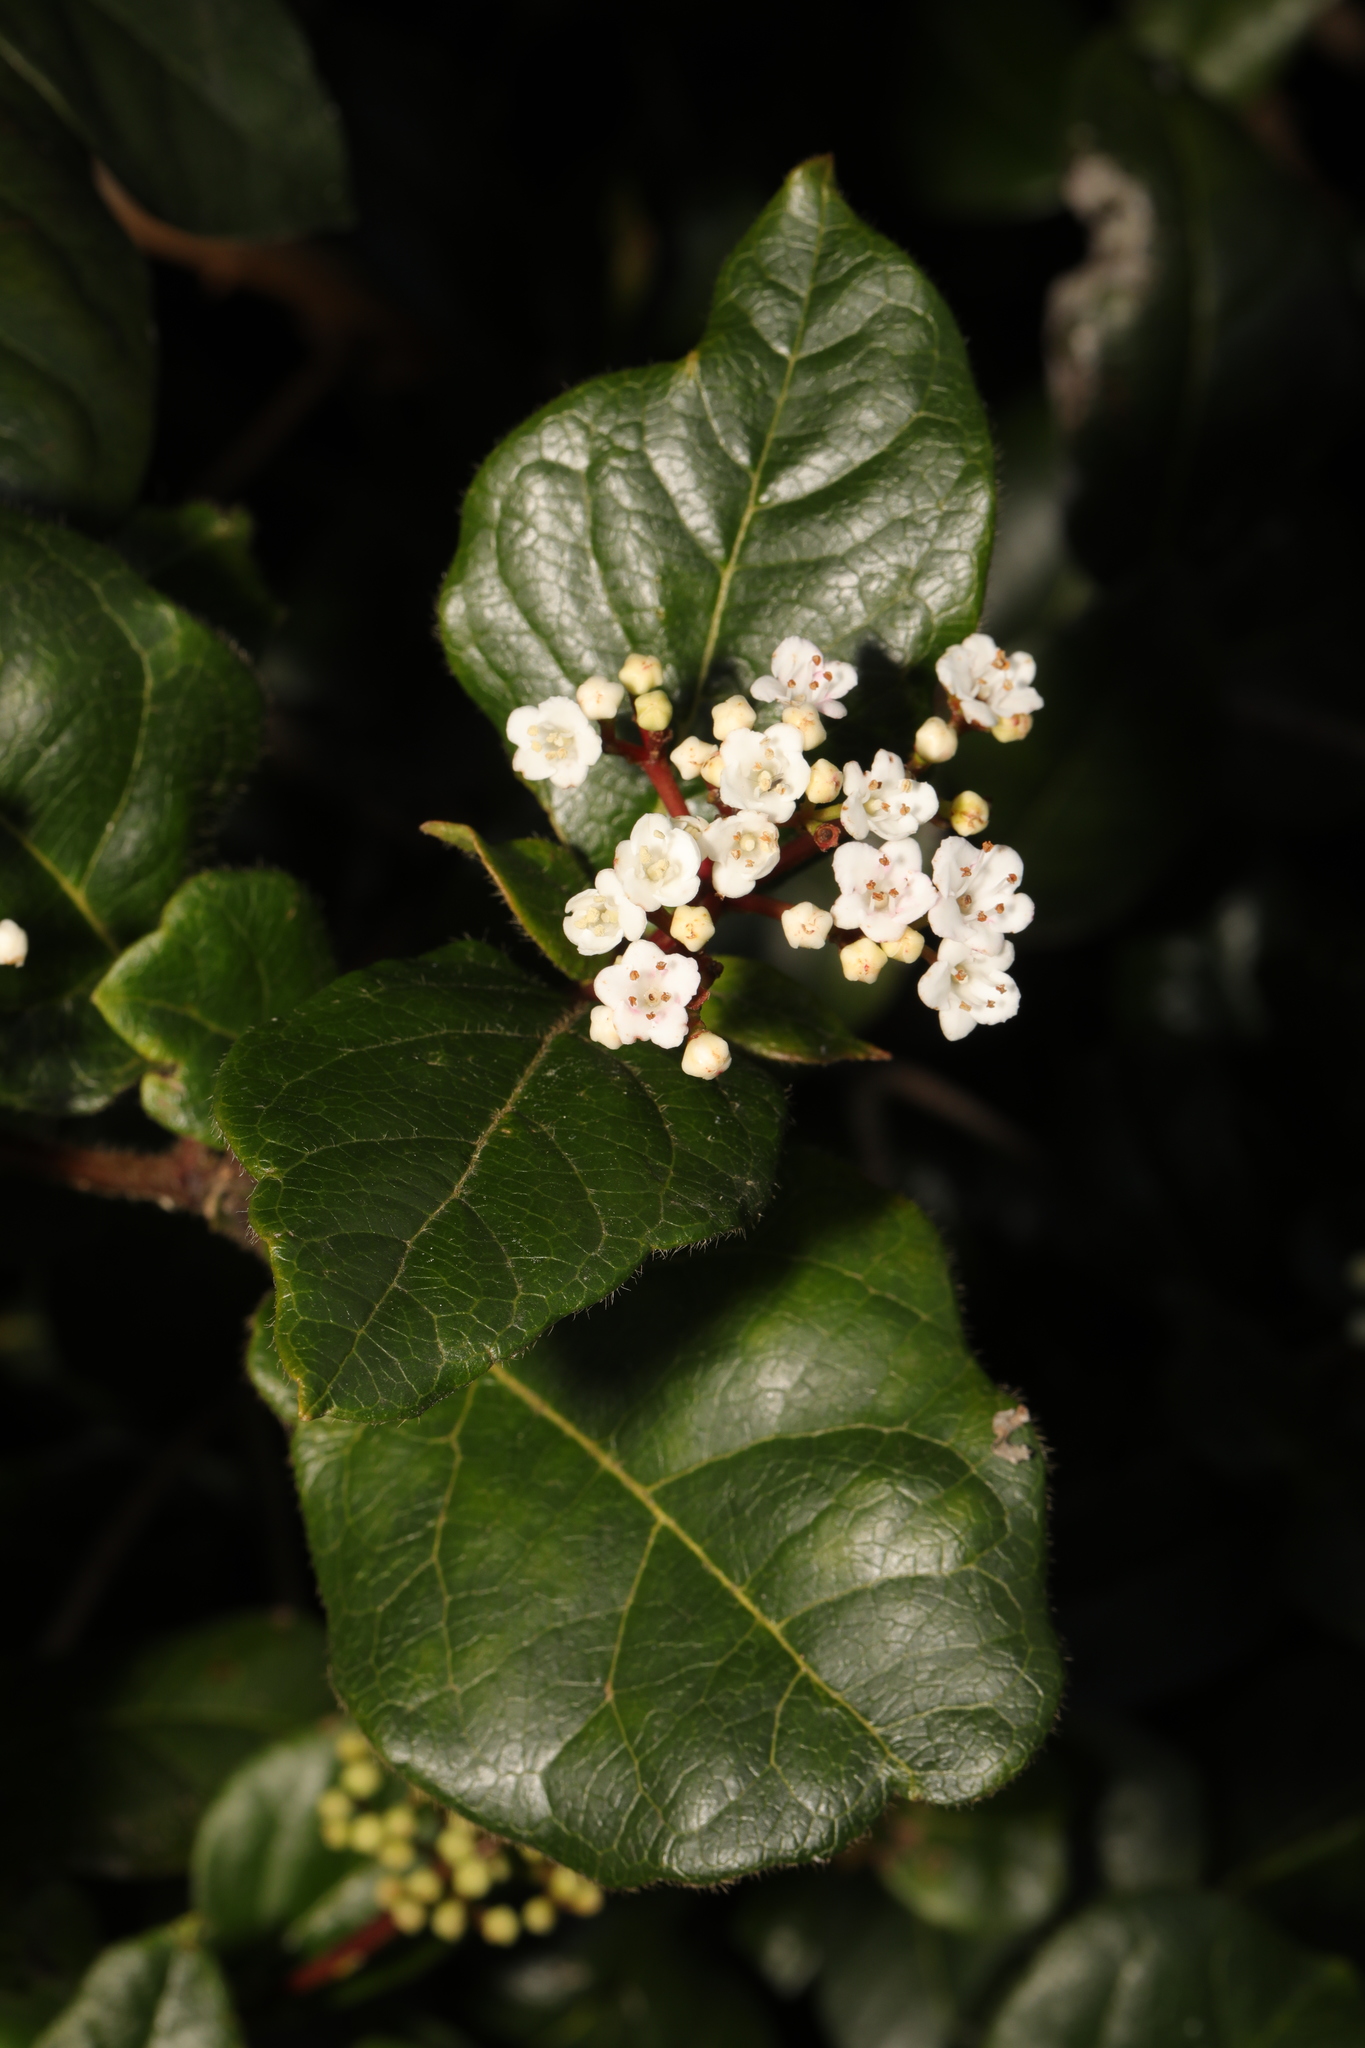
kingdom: Plantae
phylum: Tracheophyta
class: Magnoliopsida
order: Dipsacales
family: Viburnaceae
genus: Viburnum
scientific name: Viburnum tinus
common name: Laurustinus
